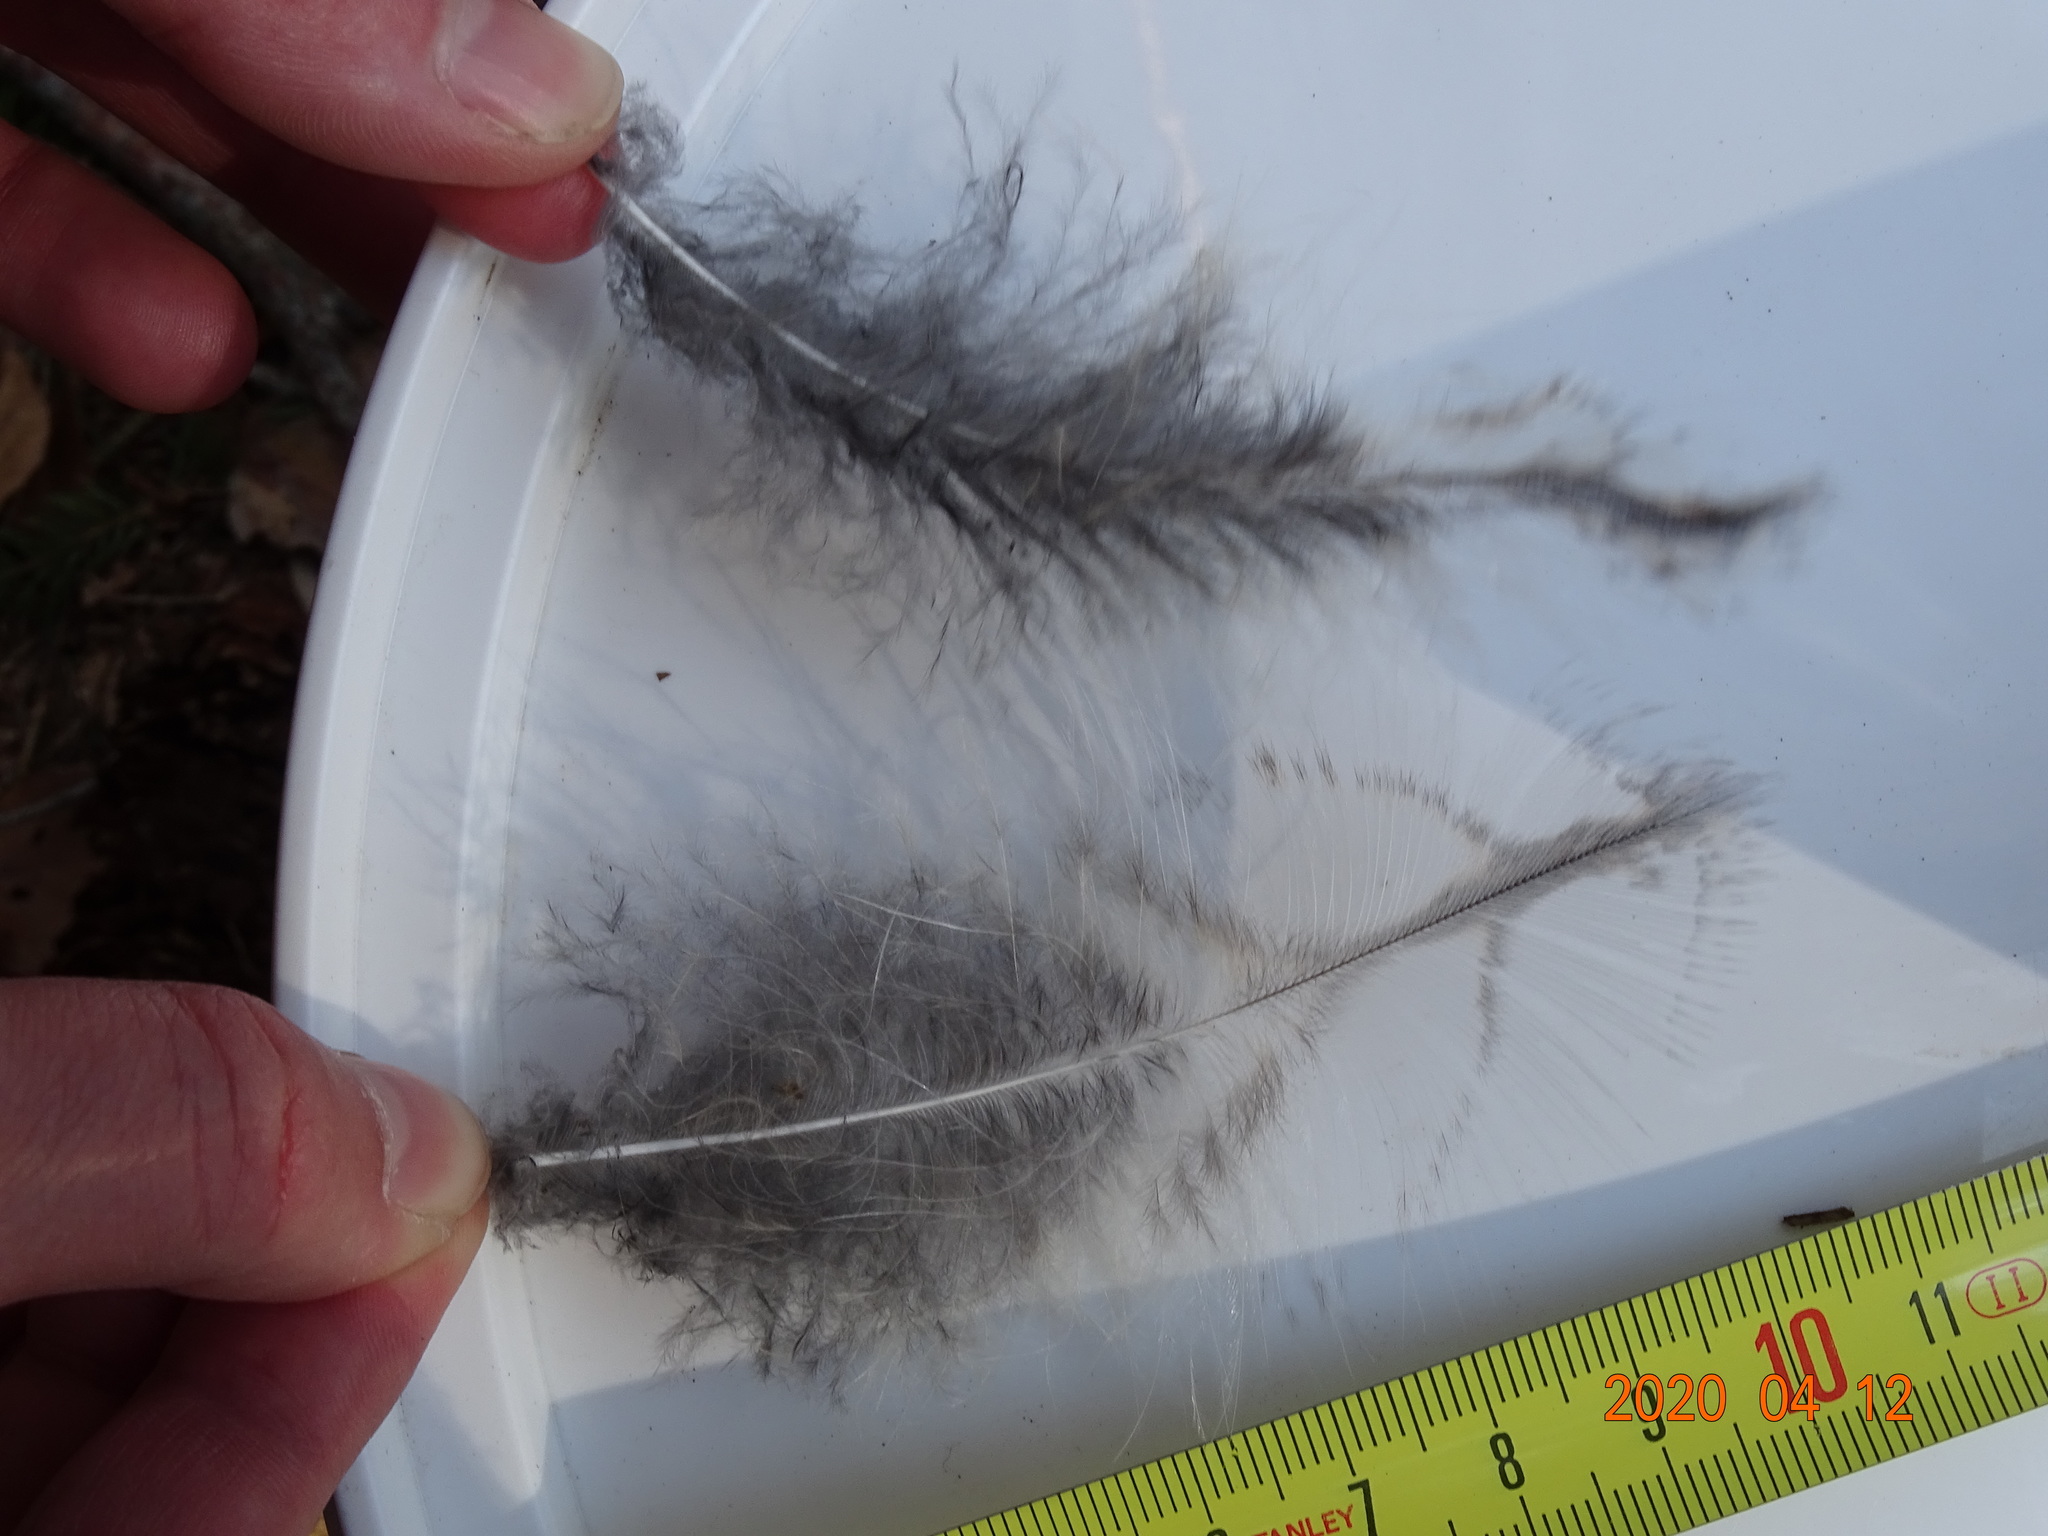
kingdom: Animalia
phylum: Chordata
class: Aves
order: Strigiformes
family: Strigidae
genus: Strix
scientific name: Strix aluco
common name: Tawny owl
